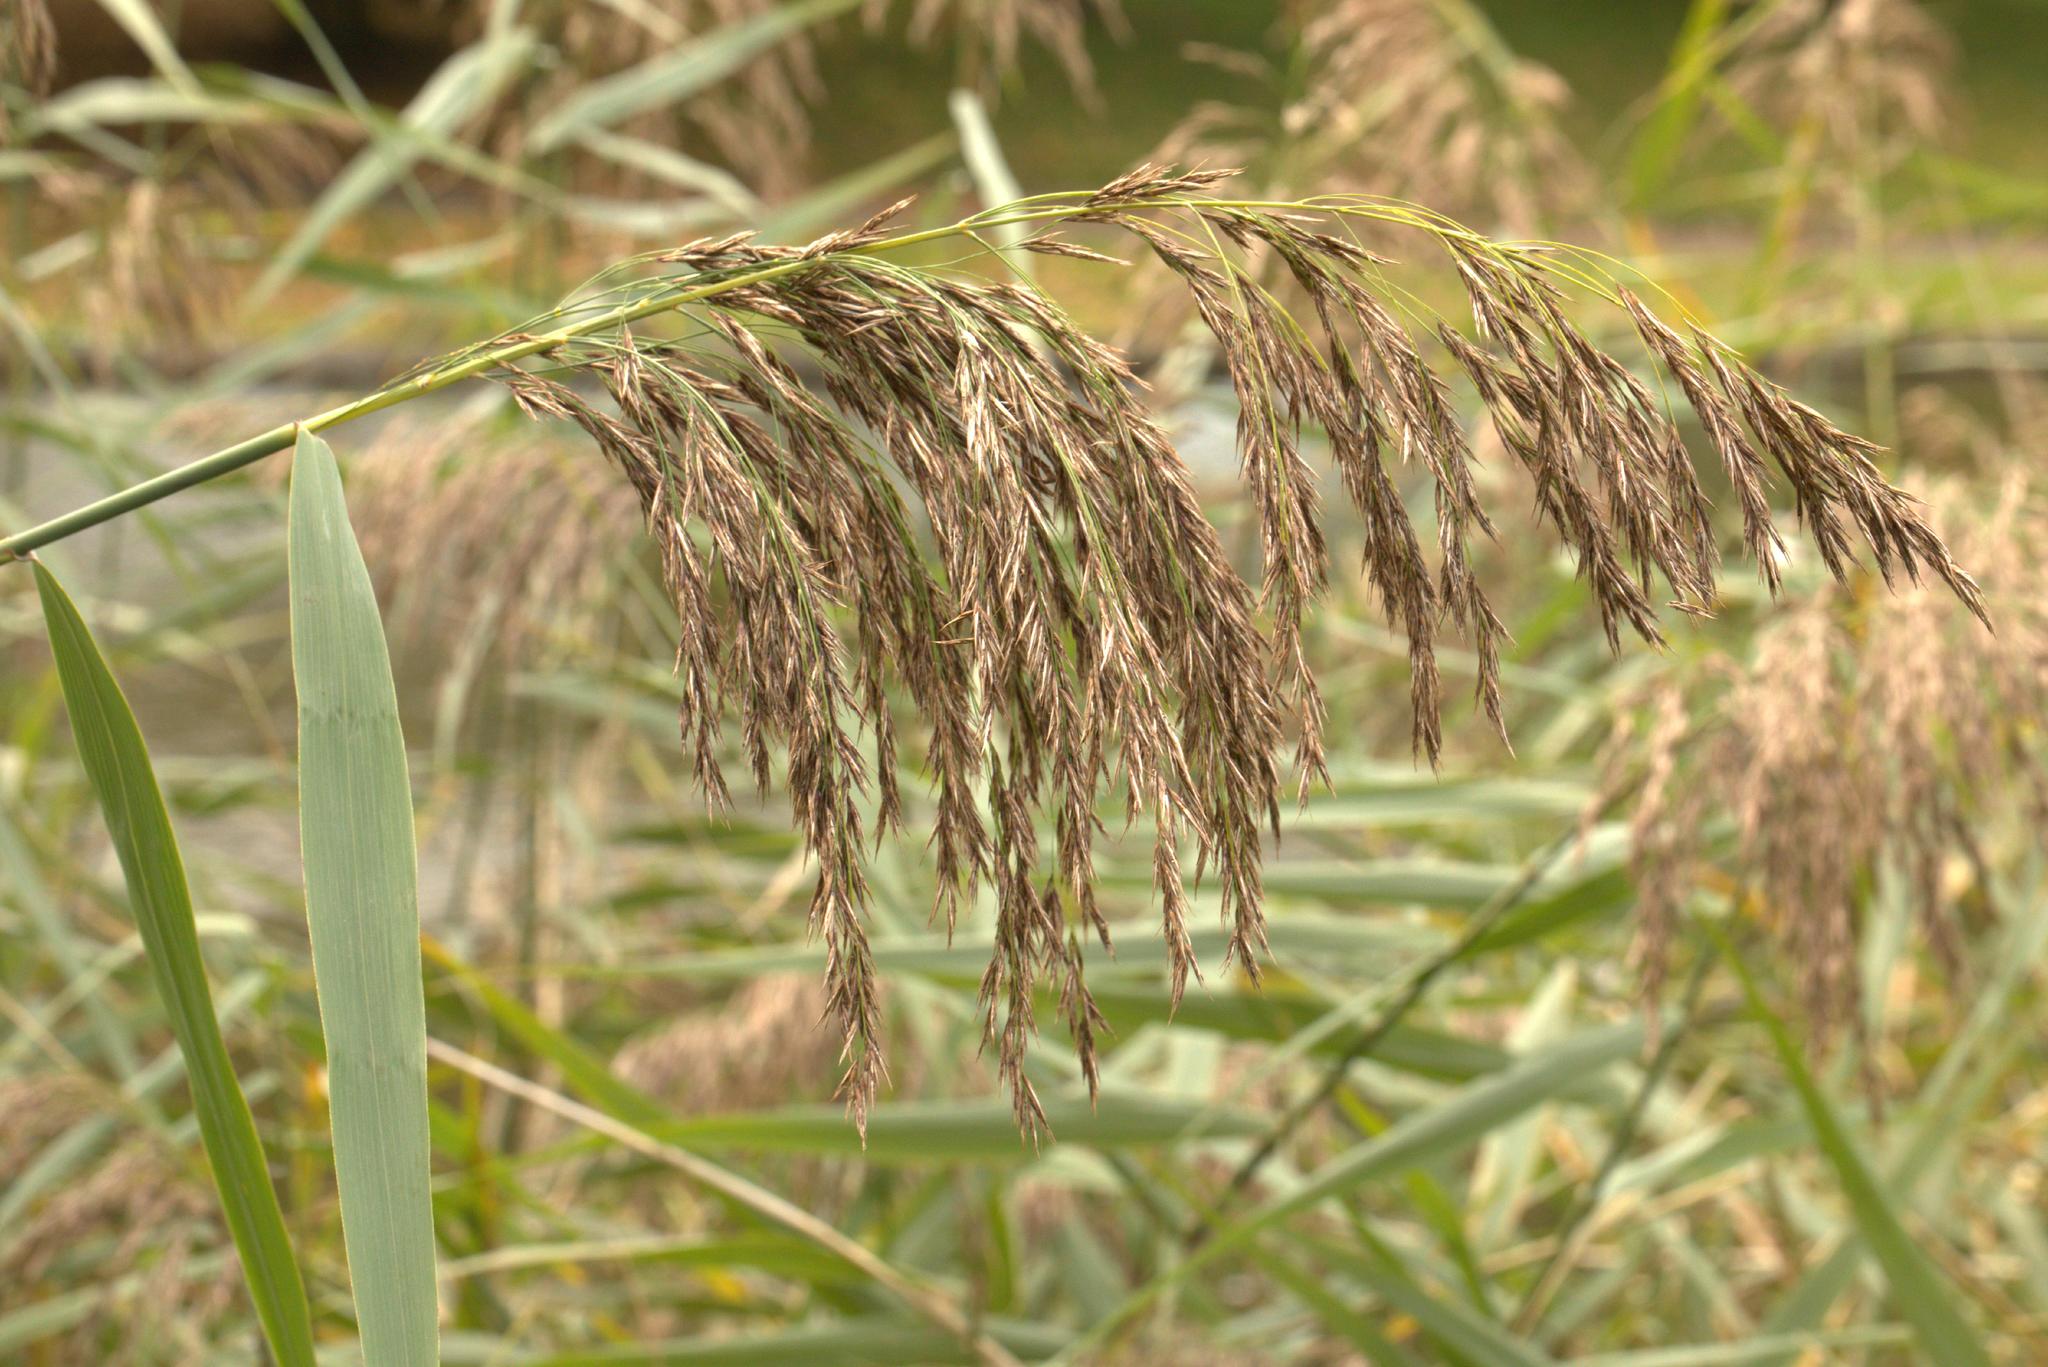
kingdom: Plantae
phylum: Tracheophyta
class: Liliopsida
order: Poales
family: Poaceae
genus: Phragmites
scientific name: Phragmites australis
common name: Common reed
